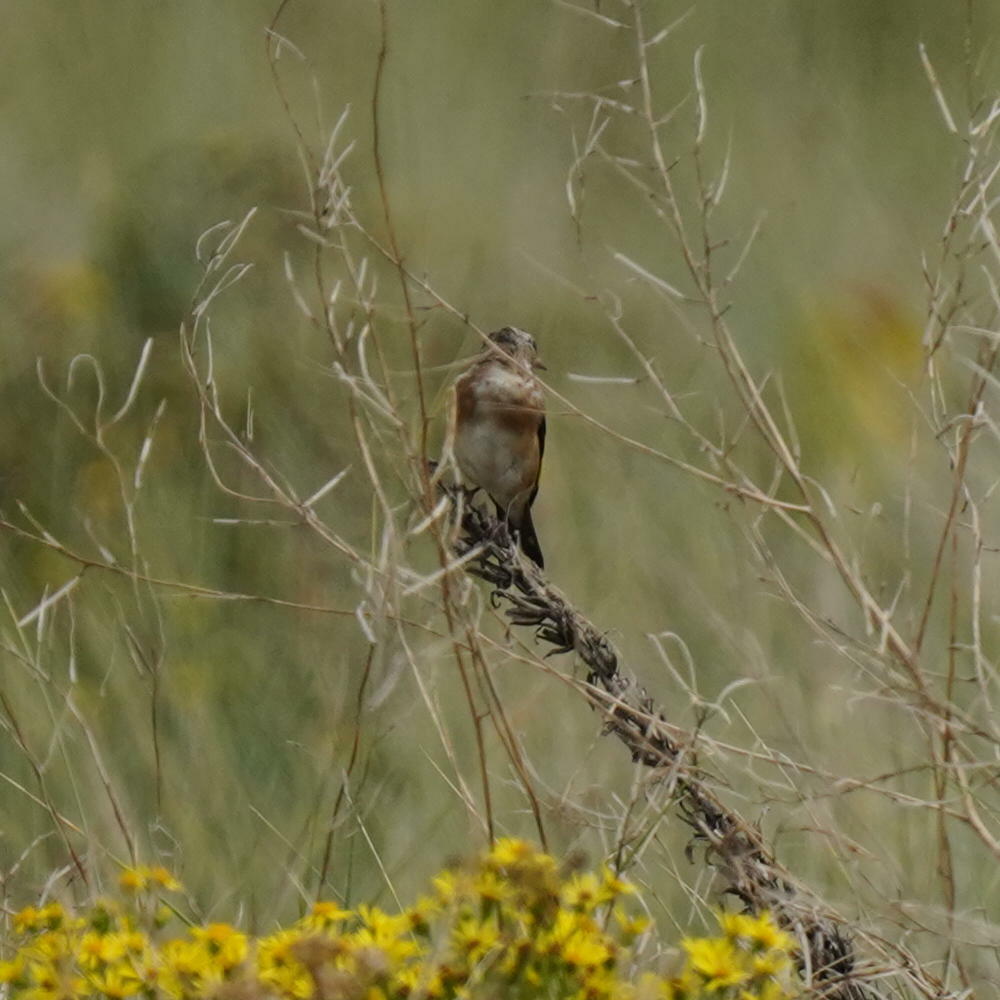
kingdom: Animalia
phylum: Chordata
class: Aves
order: Passeriformes
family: Fringillidae
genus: Carduelis
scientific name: Carduelis carduelis
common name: European goldfinch
